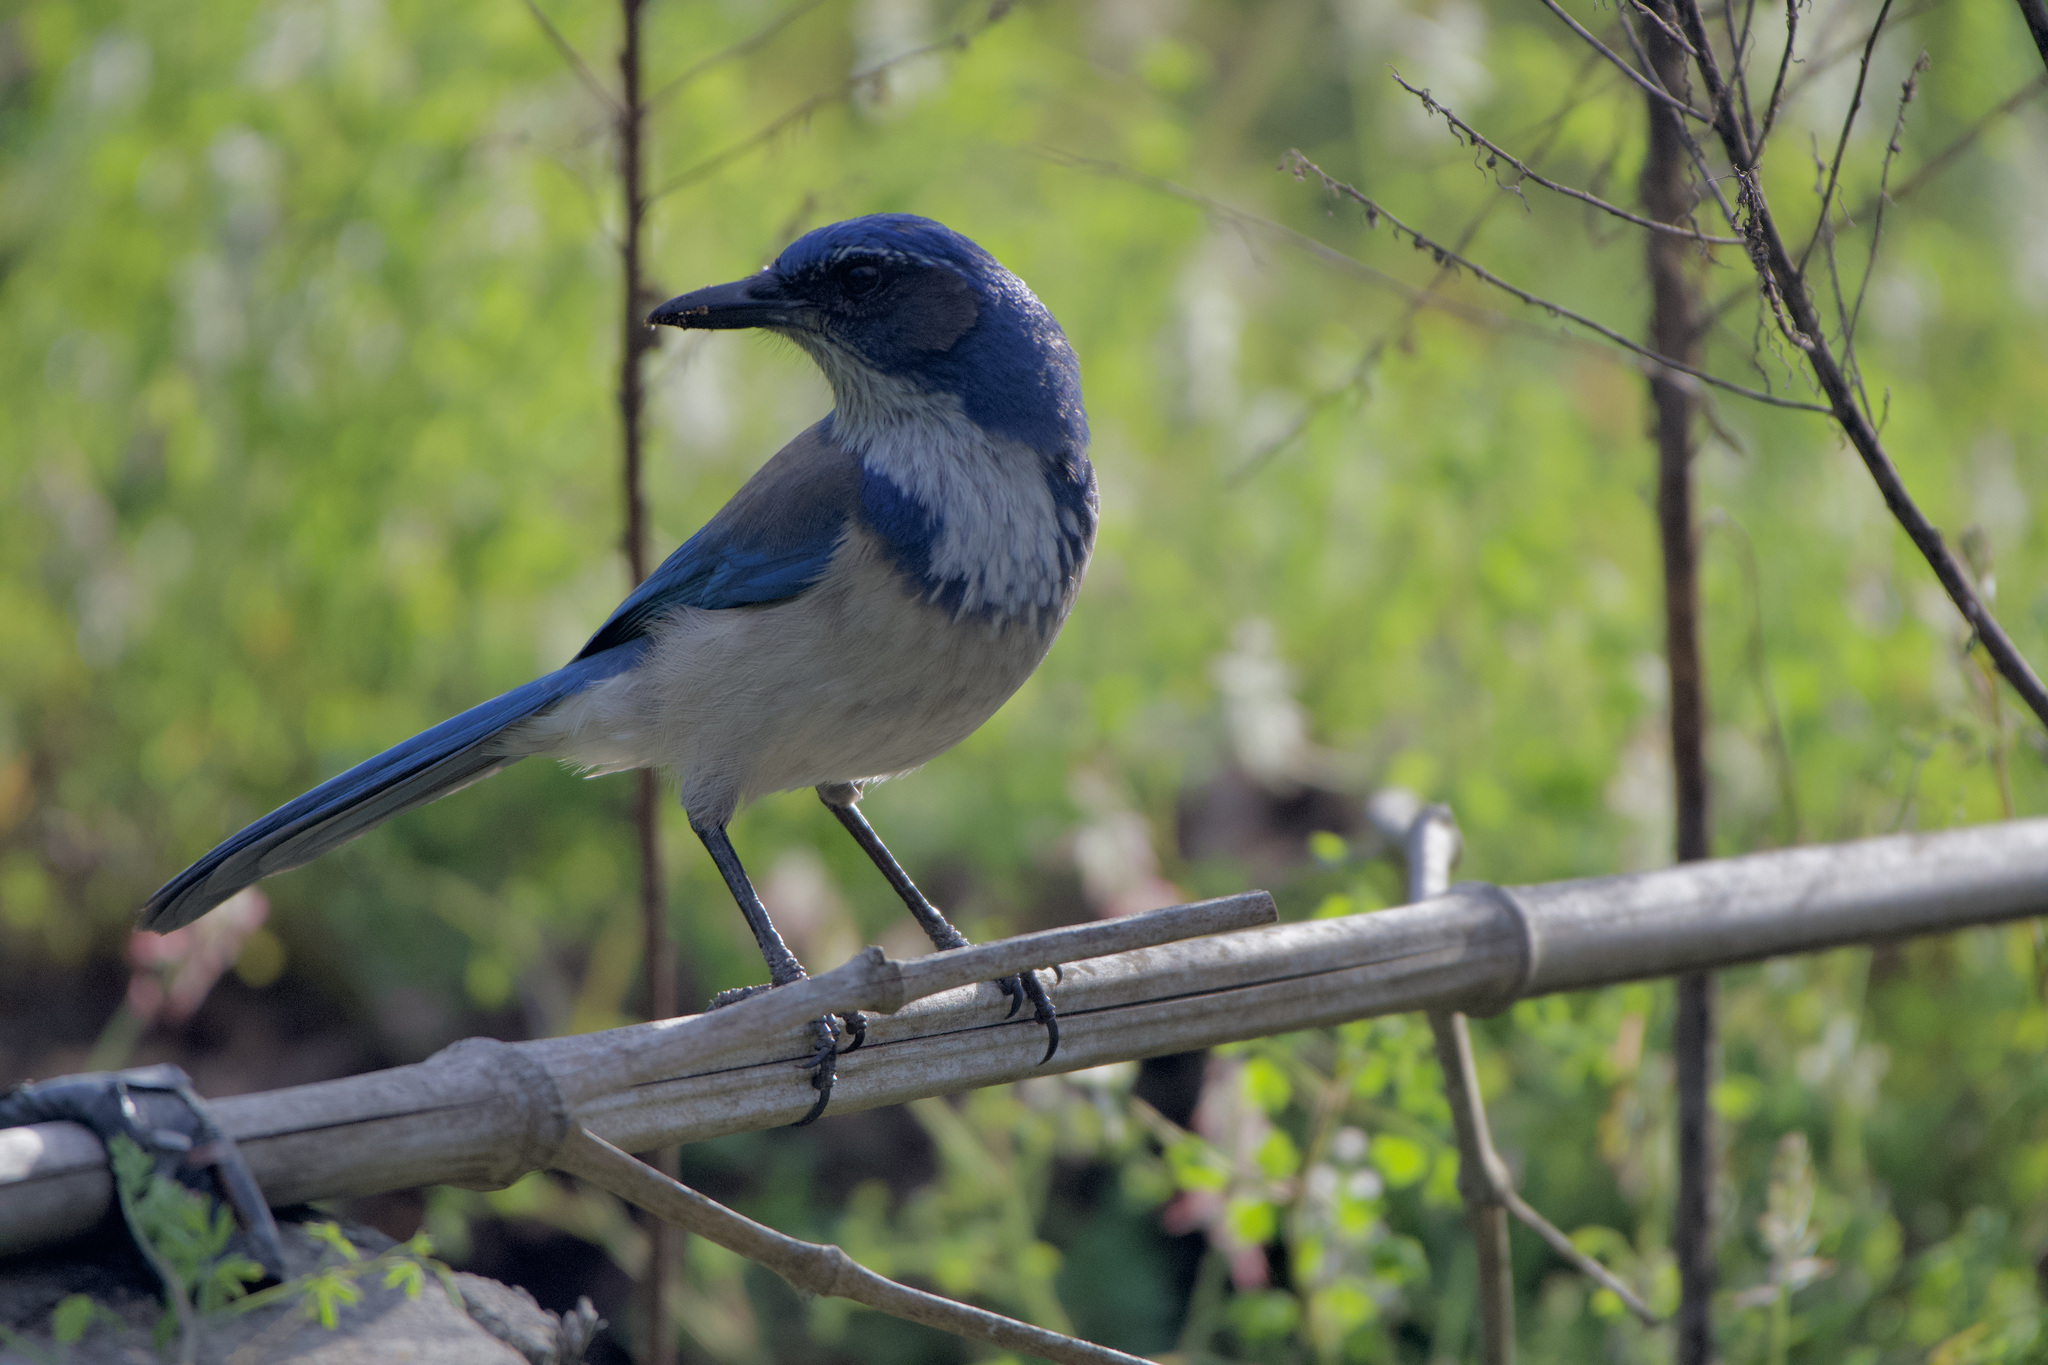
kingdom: Animalia
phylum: Chordata
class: Aves
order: Passeriformes
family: Corvidae
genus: Aphelocoma
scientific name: Aphelocoma californica
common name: California scrub-jay
